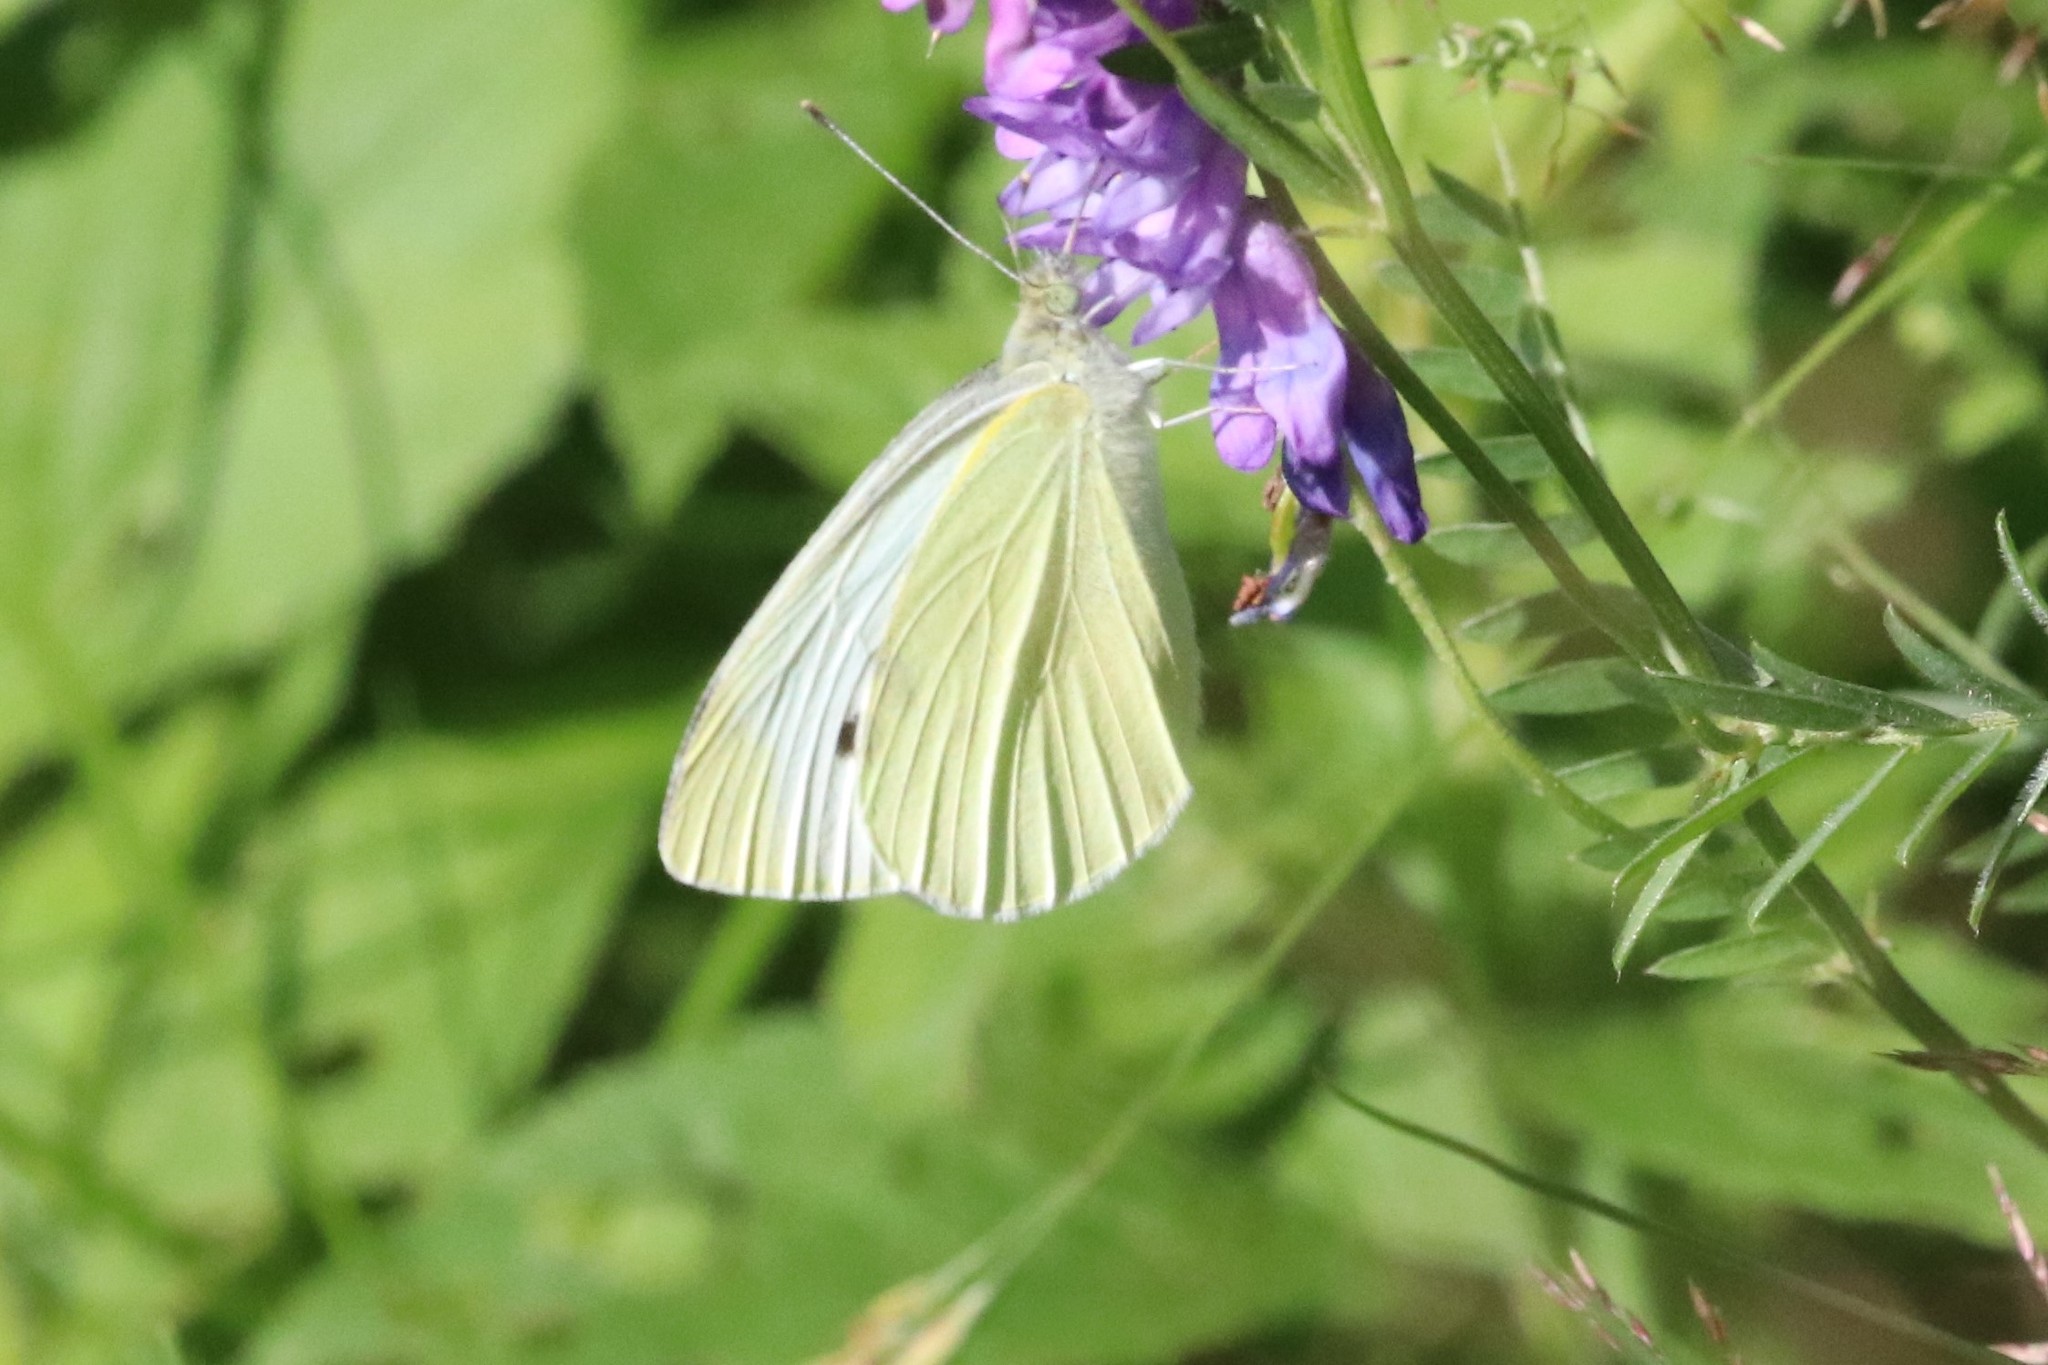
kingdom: Animalia
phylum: Arthropoda
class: Insecta
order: Lepidoptera
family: Pieridae
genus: Pieris
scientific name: Pieris rapae
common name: Small white
